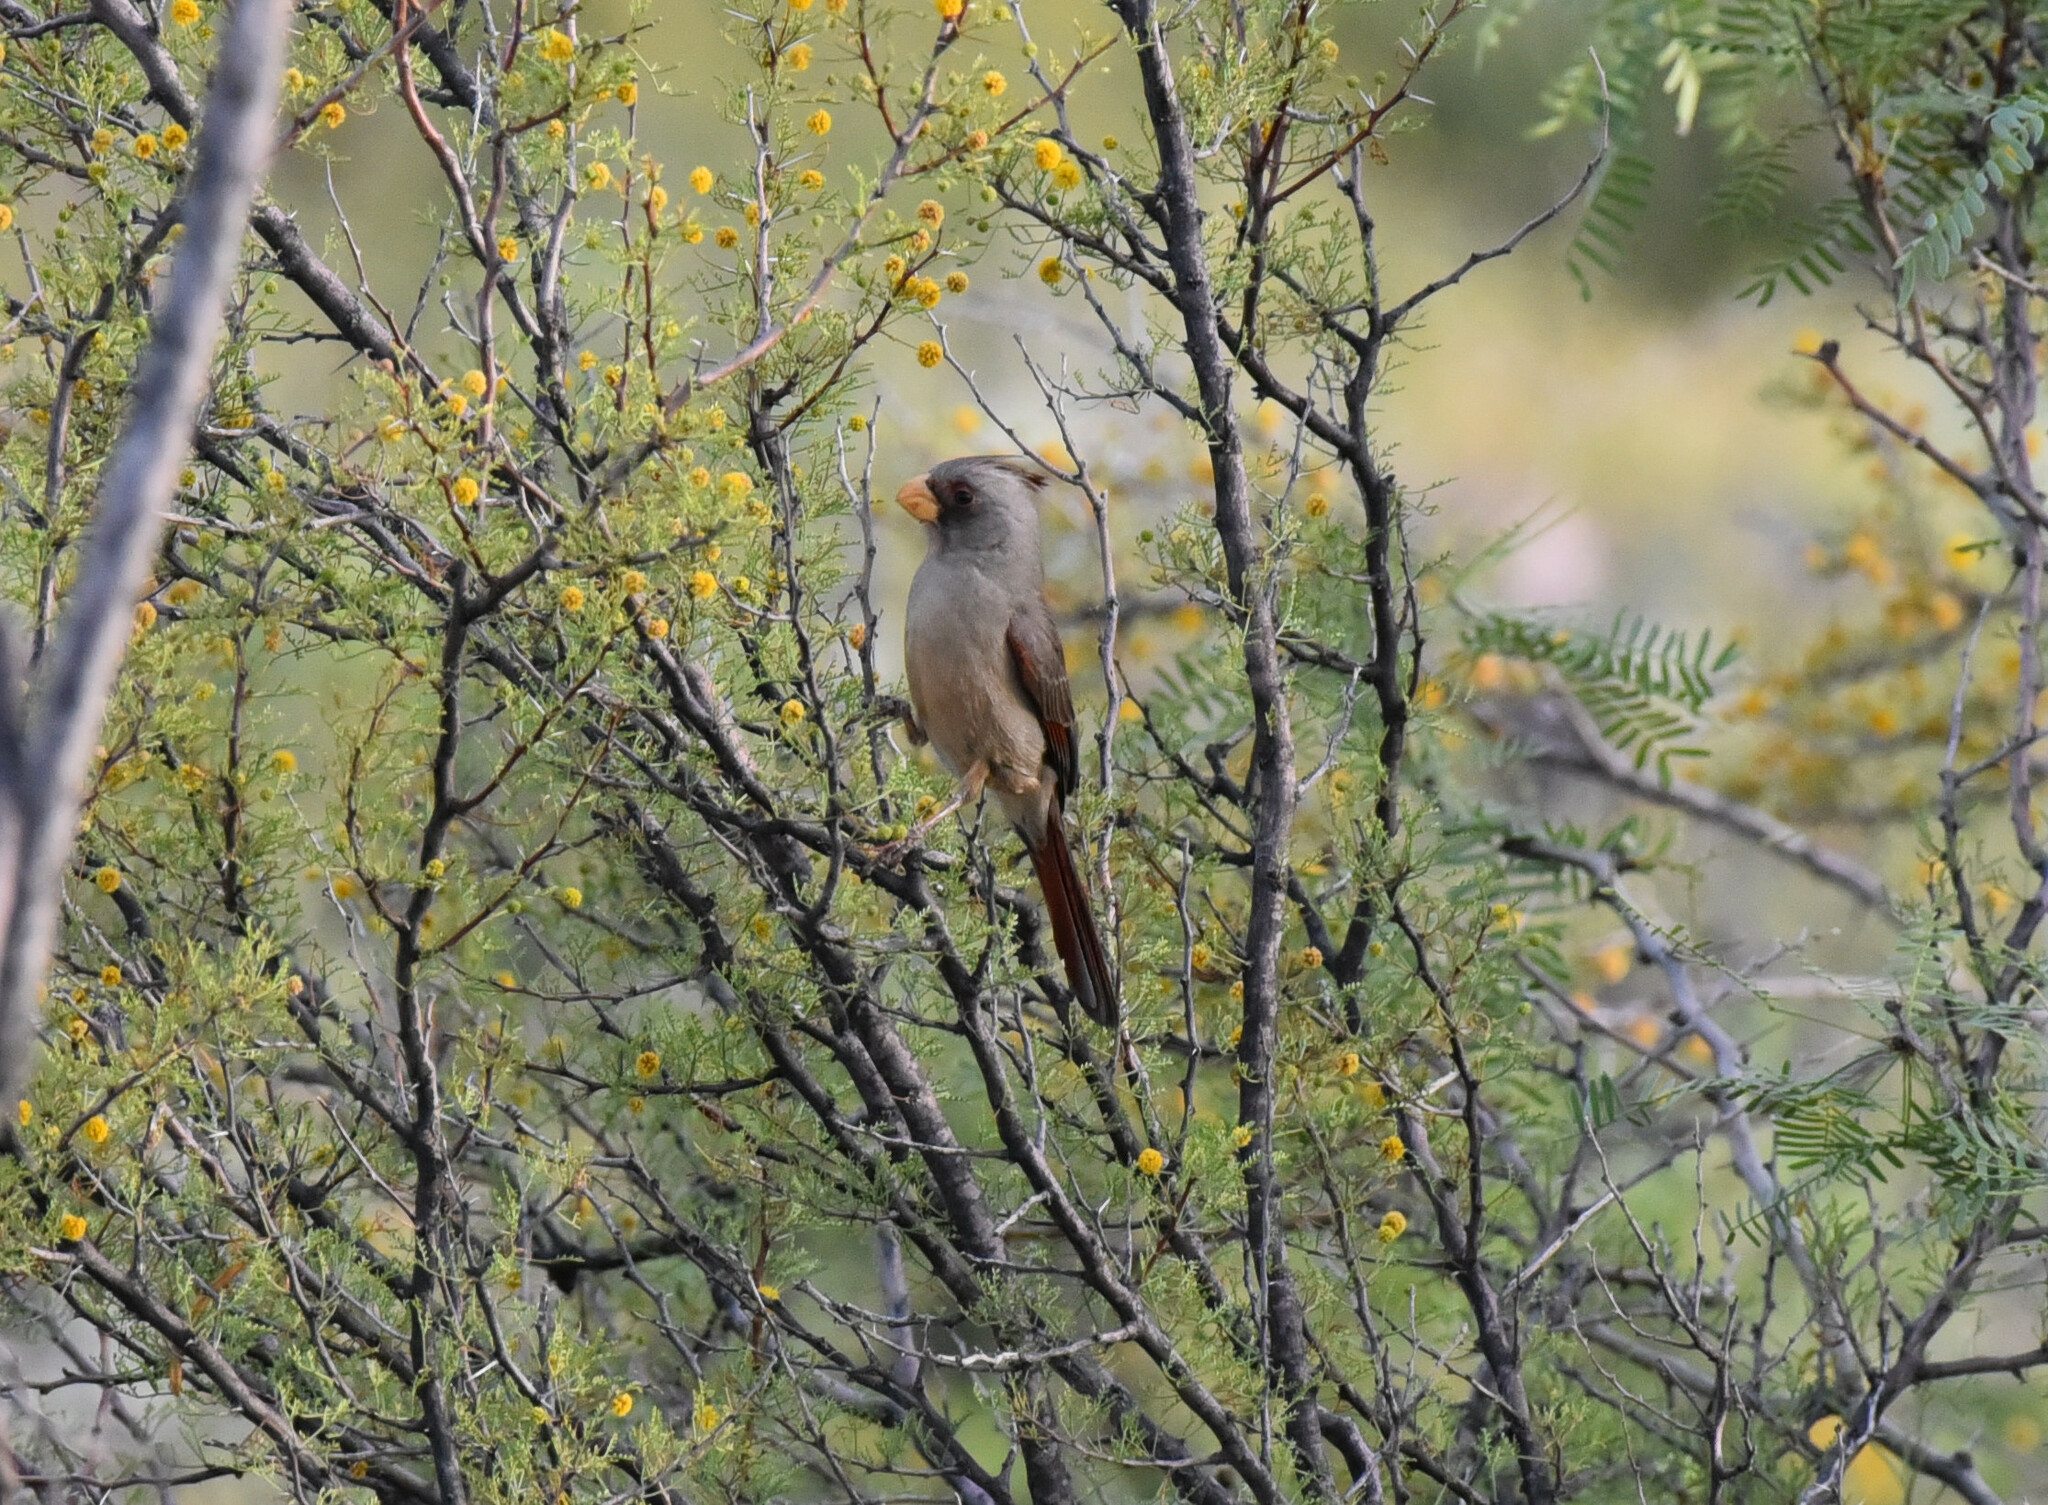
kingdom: Animalia
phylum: Chordata
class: Aves
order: Passeriformes
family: Cardinalidae
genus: Cardinalis
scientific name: Cardinalis sinuatus
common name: Pyrrhuloxia
